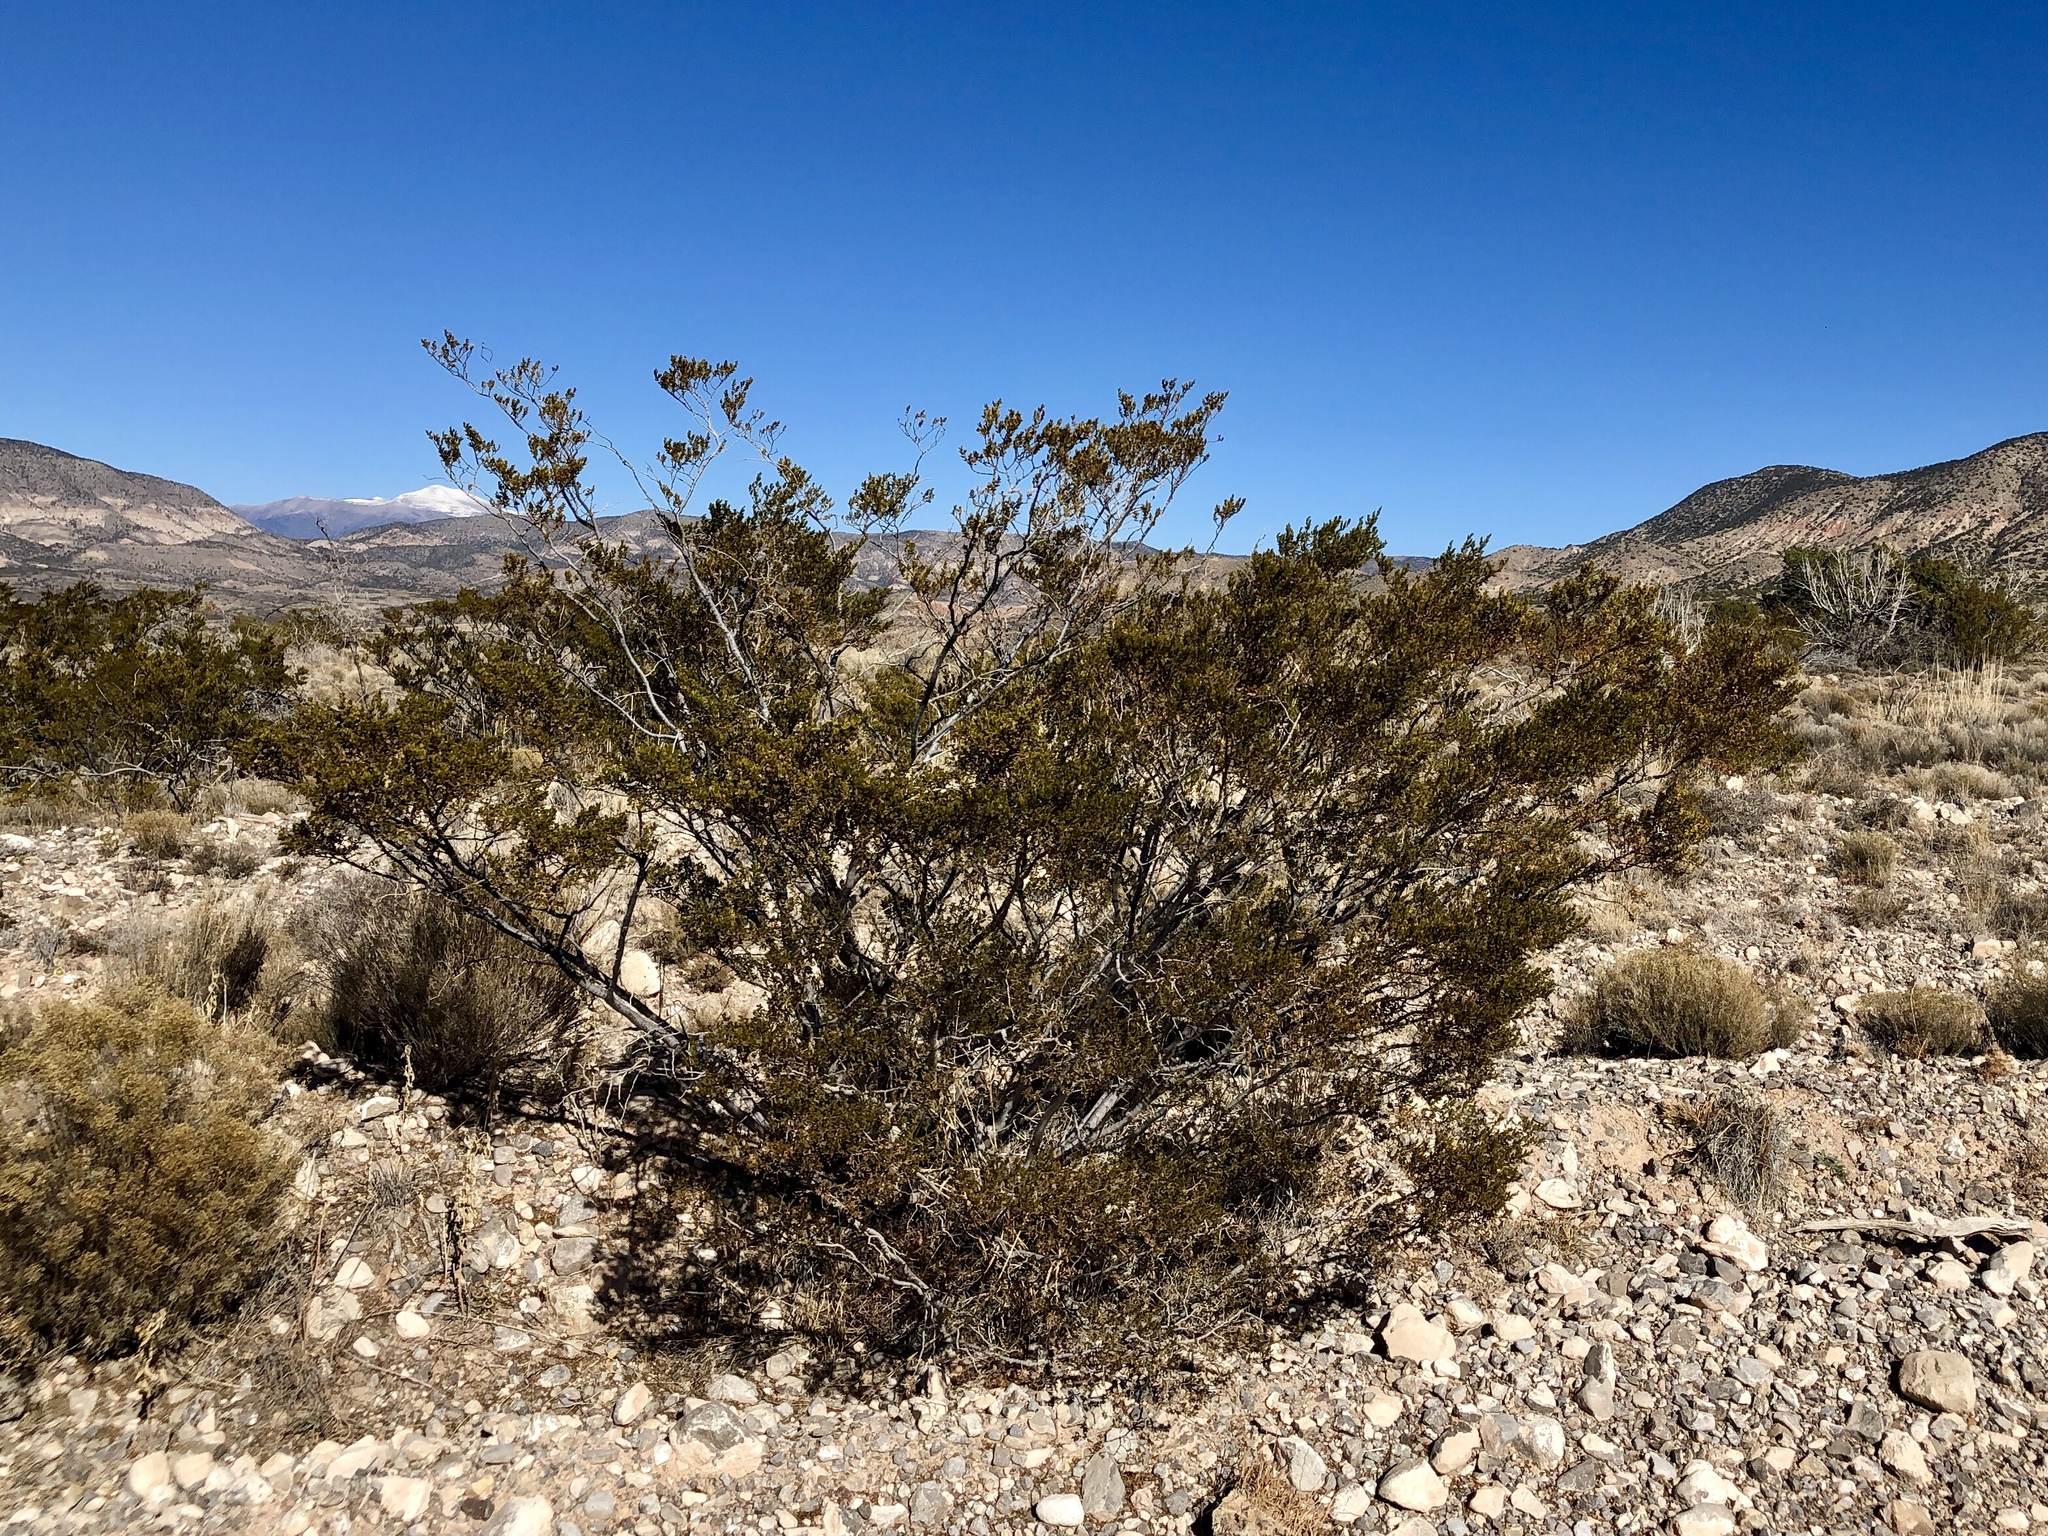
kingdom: Plantae
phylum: Tracheophyta
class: Magnoliopsida
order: Zygophyllales
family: Zygophyllaceae
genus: Larrea
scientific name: Larrea tridentata
